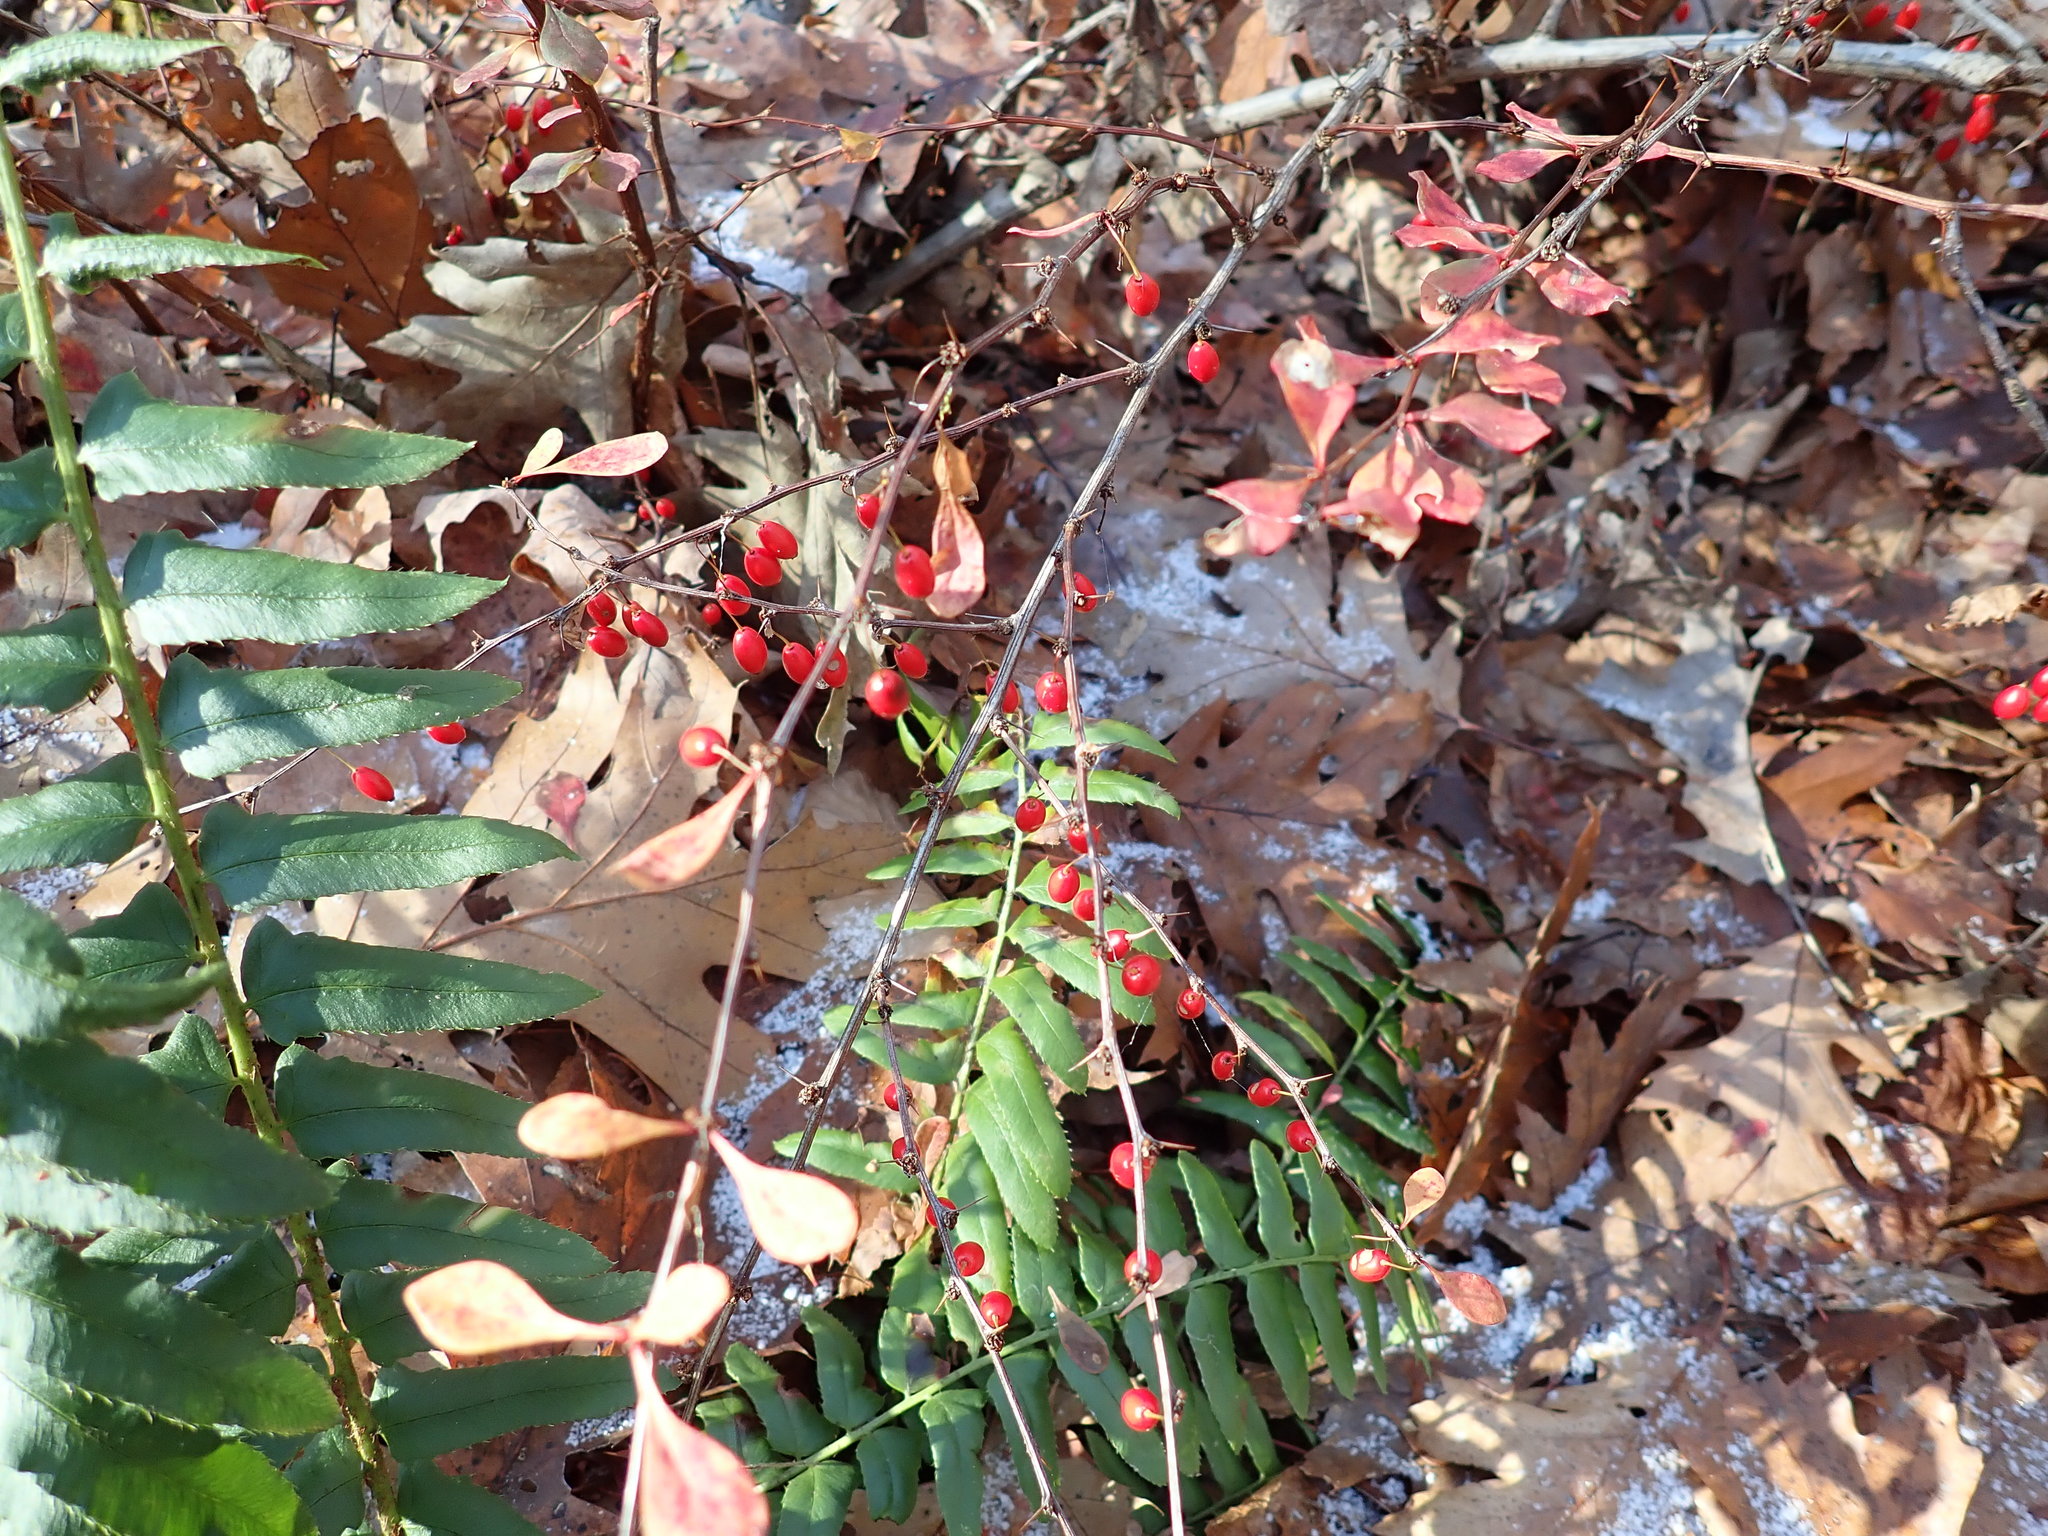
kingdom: Plantae
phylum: Tracheophyta
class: Magnoliopsida
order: Ranunculales
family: Berberidaceae
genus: Berberis
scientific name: Berberis thunbergii
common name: Japanese barberry
